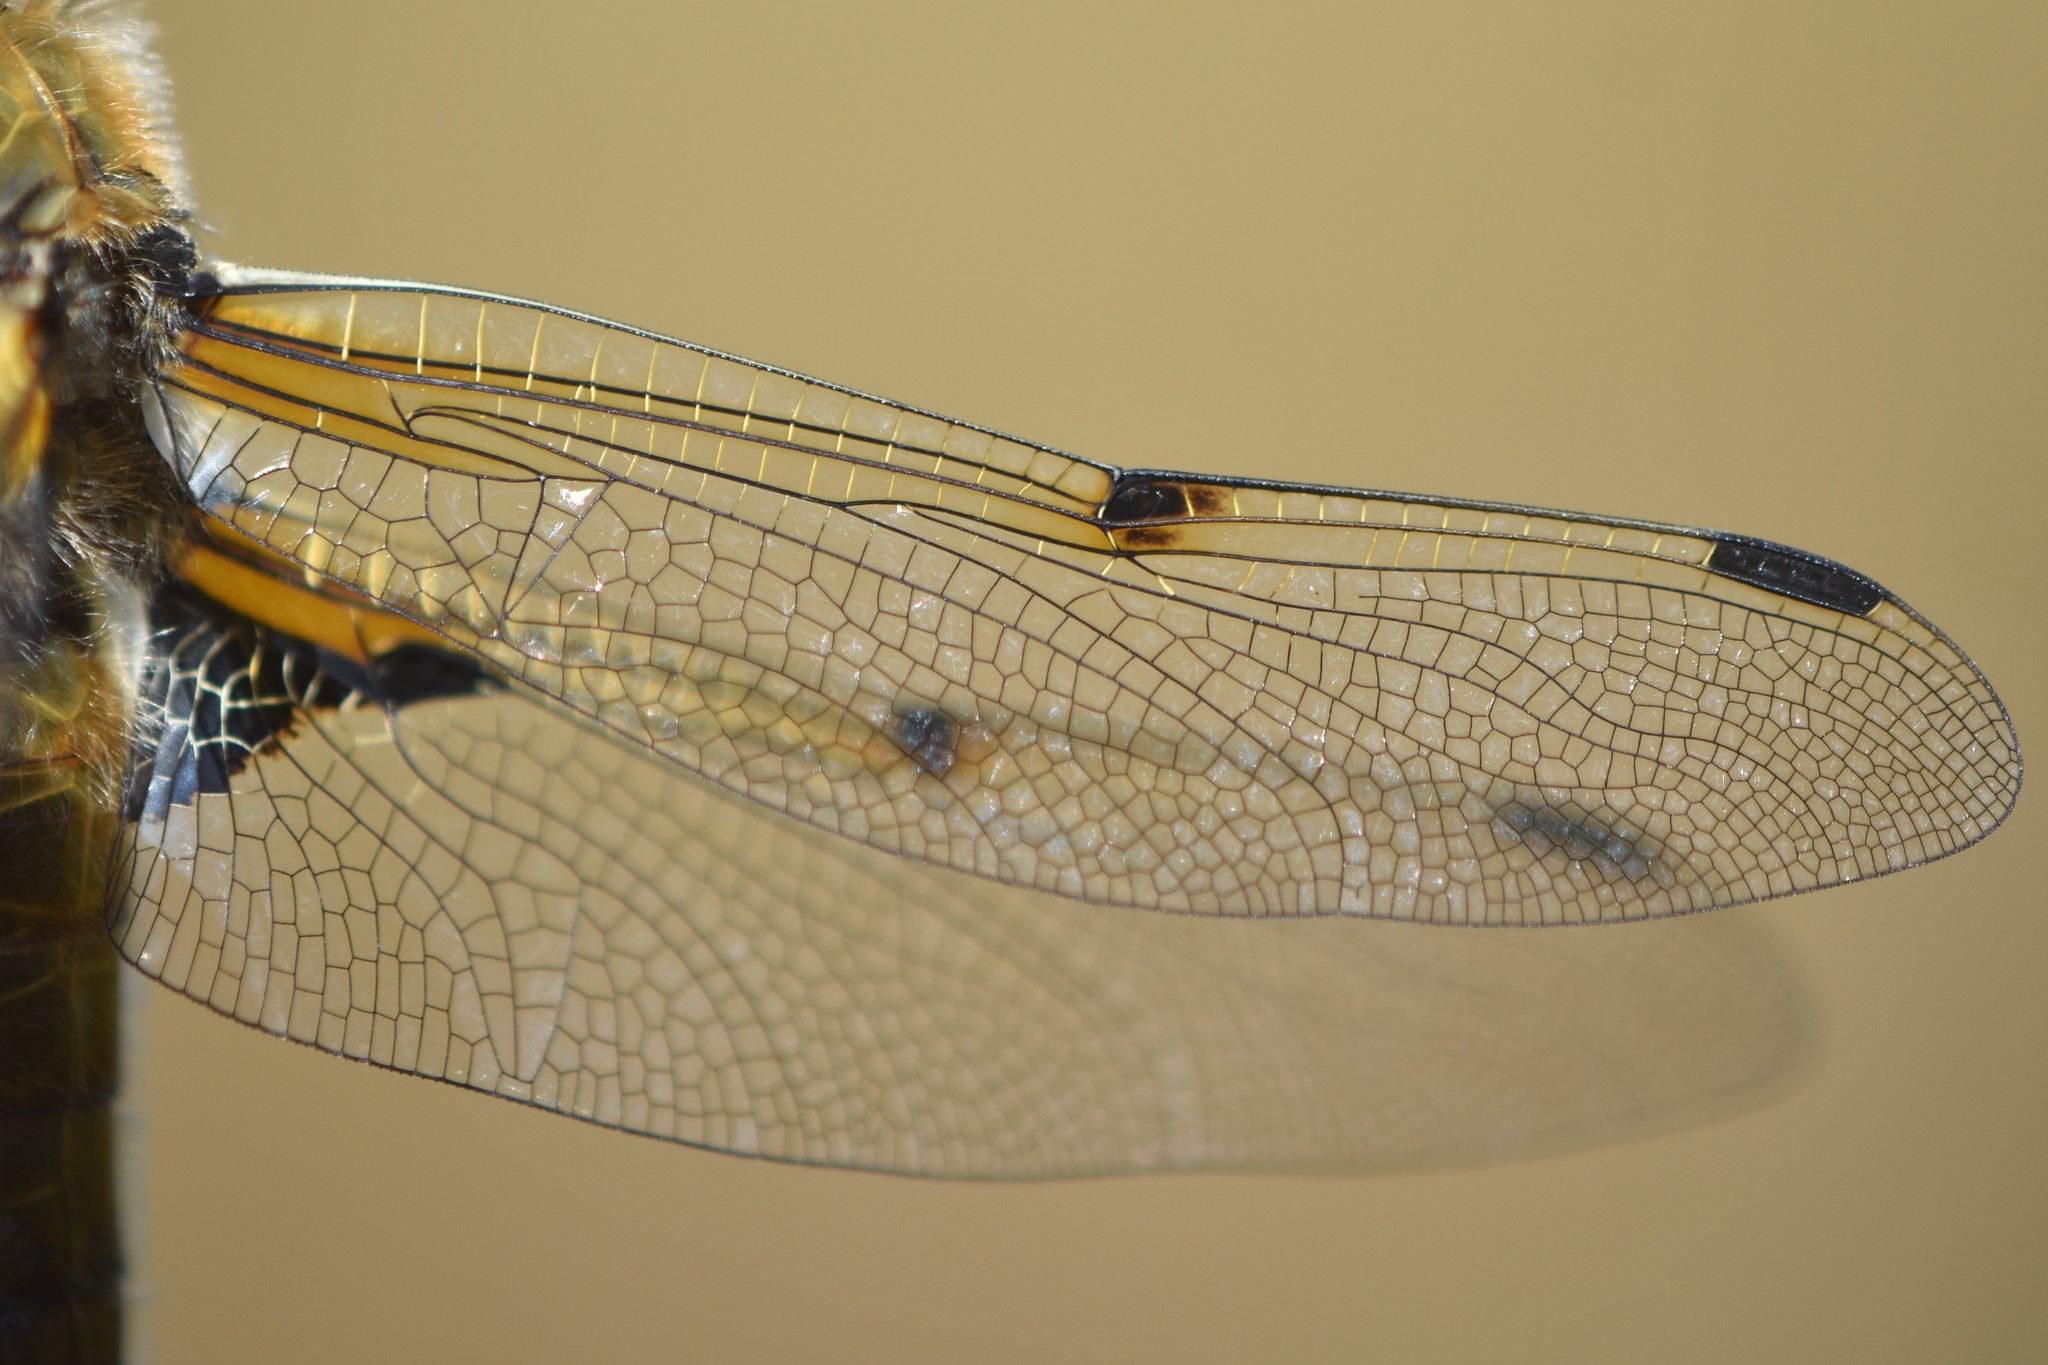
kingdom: Animalia
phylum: Arthropoda
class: Insecta
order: Odonata
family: Libellulidae
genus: Libellula
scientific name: Libellula quadrimaculata
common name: Four-spotted chaser
